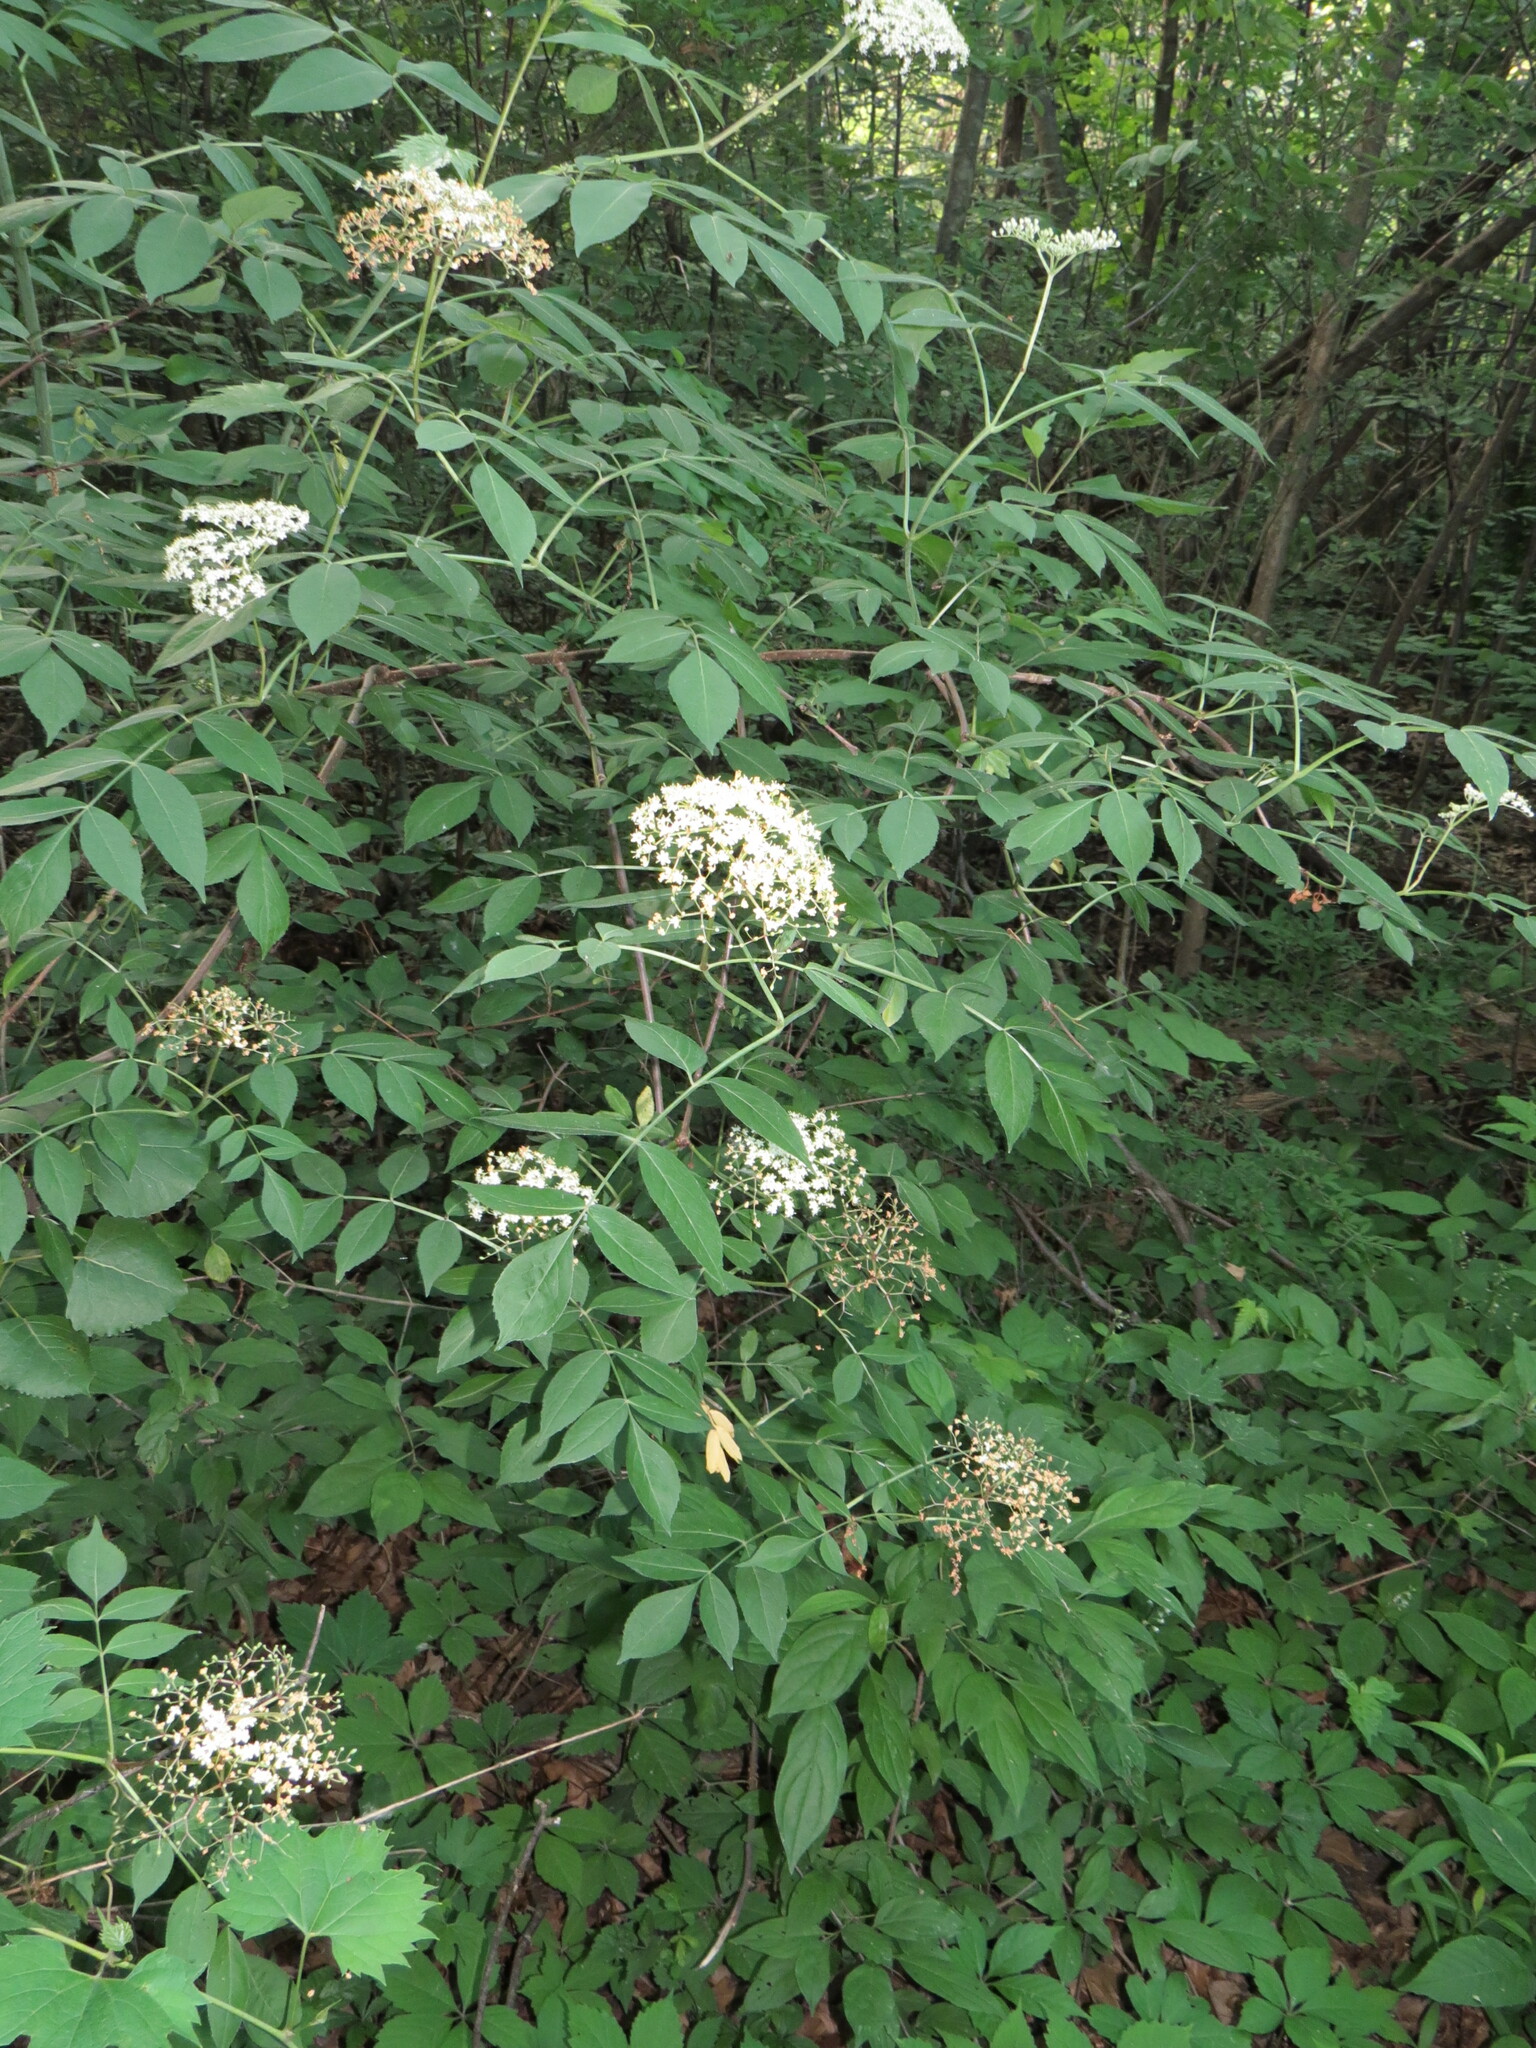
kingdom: Plantae
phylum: Tracheophyta
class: Magnoliopsida
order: Dipsacales
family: Viburnaceae
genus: Sambucus
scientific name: Sambucus canadensis
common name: American elder
